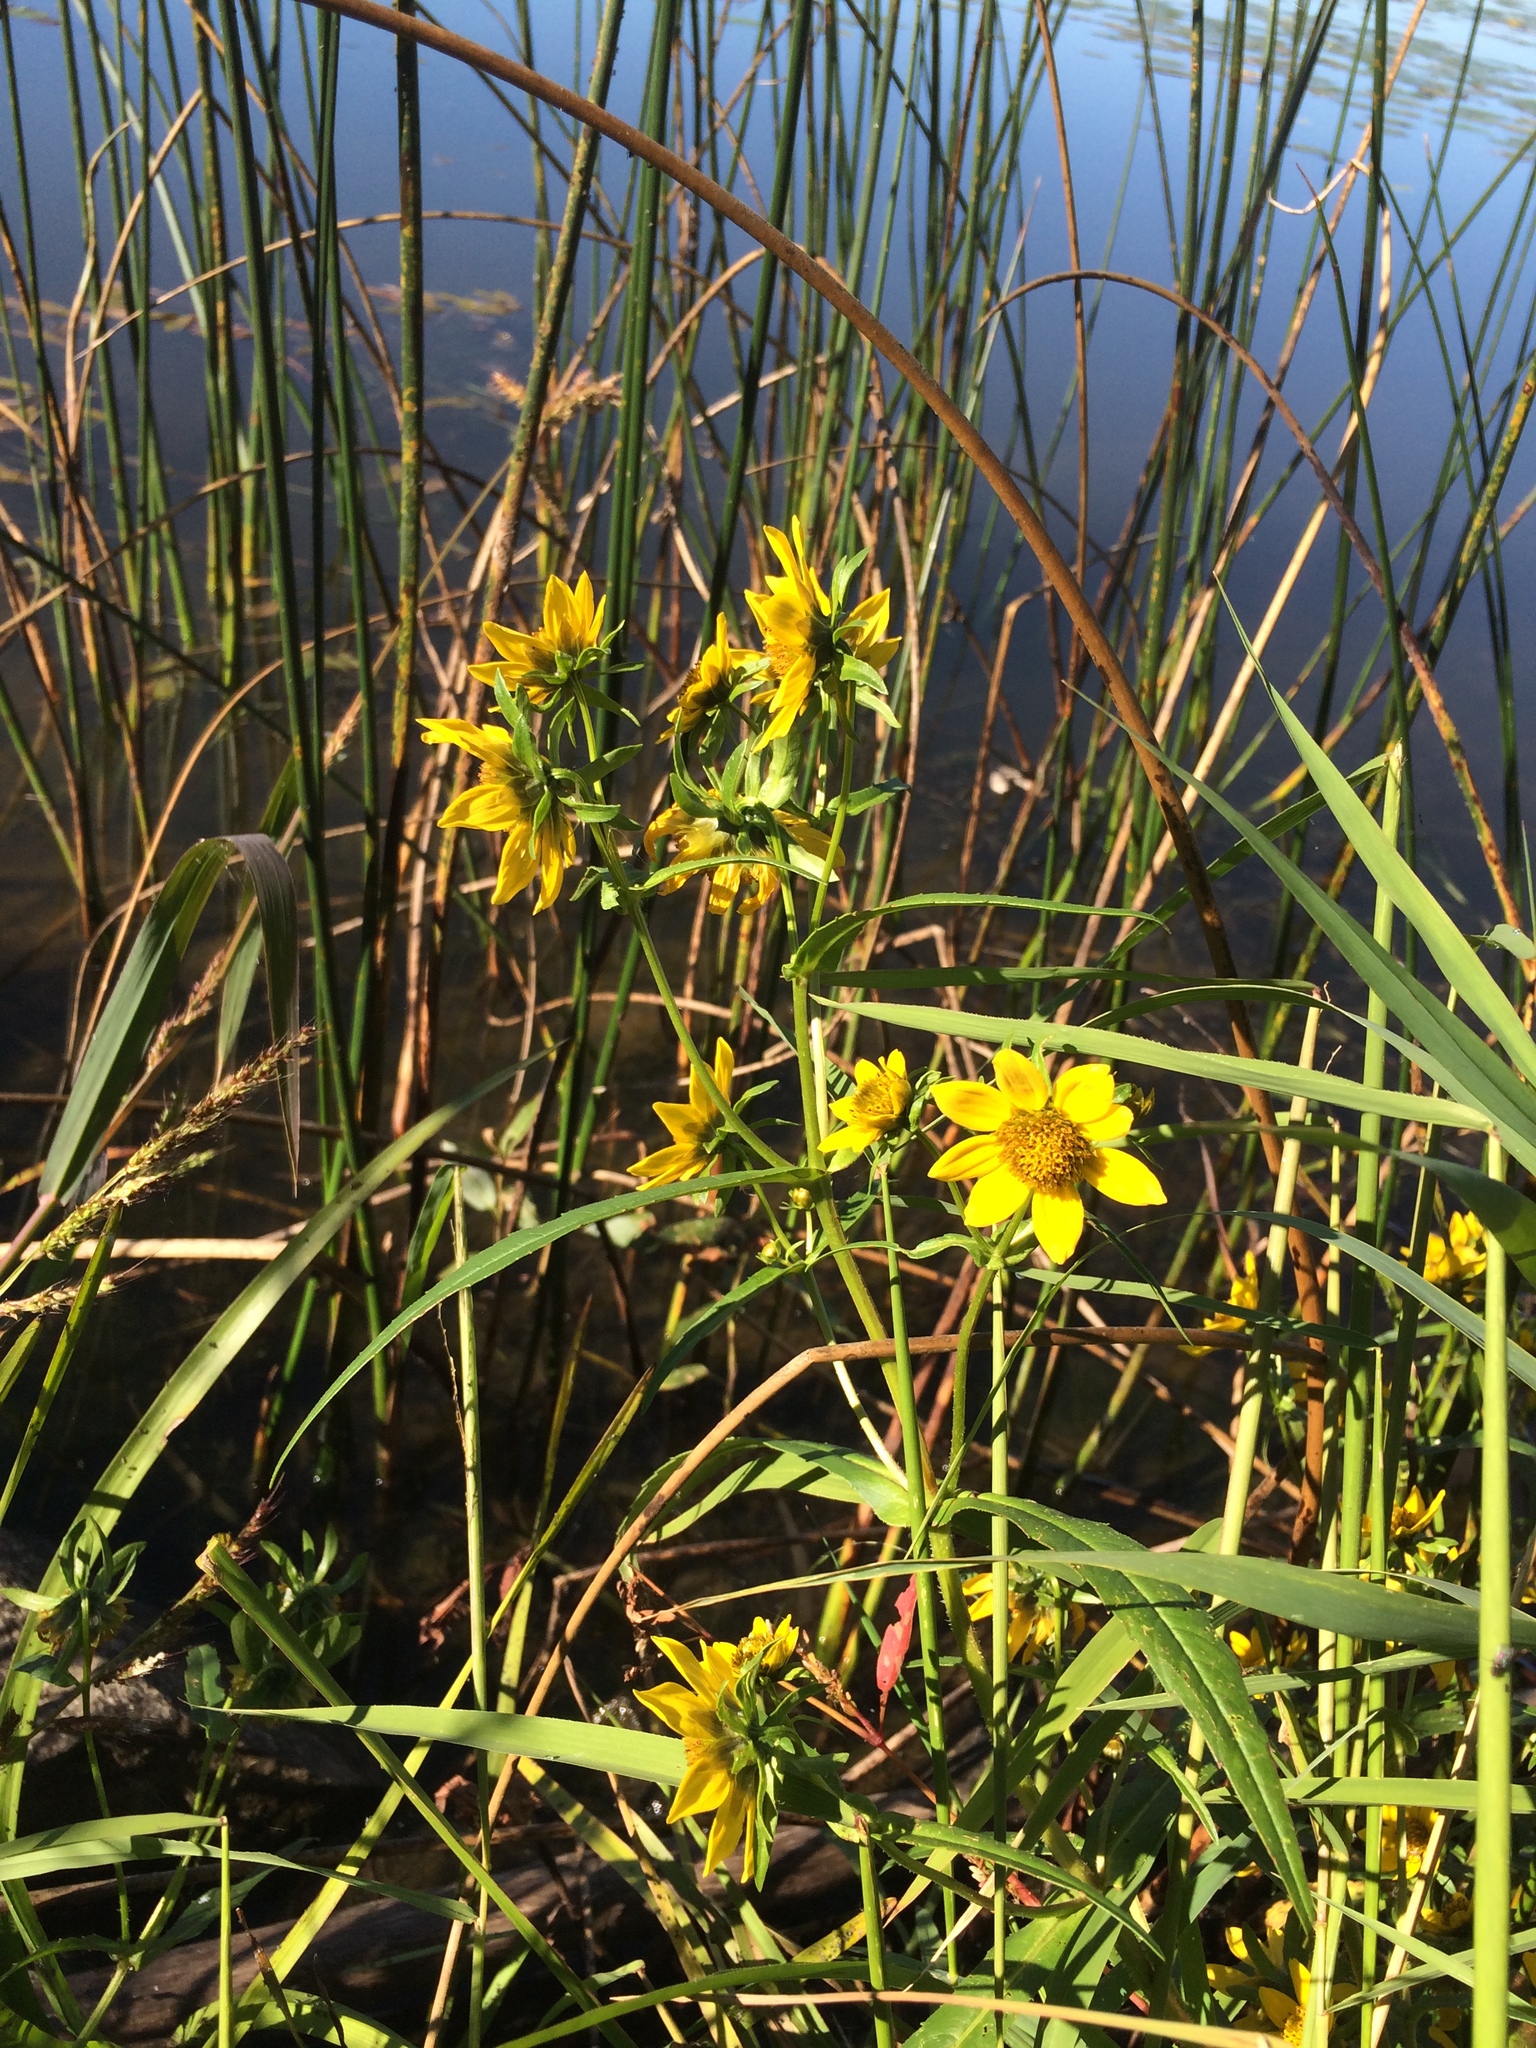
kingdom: Plantae
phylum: Tracheophyta
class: Magnoliopsida
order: Asterales
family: Asteraceae
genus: Bidens
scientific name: Bidens cernua
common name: Nodding bur-marigold
